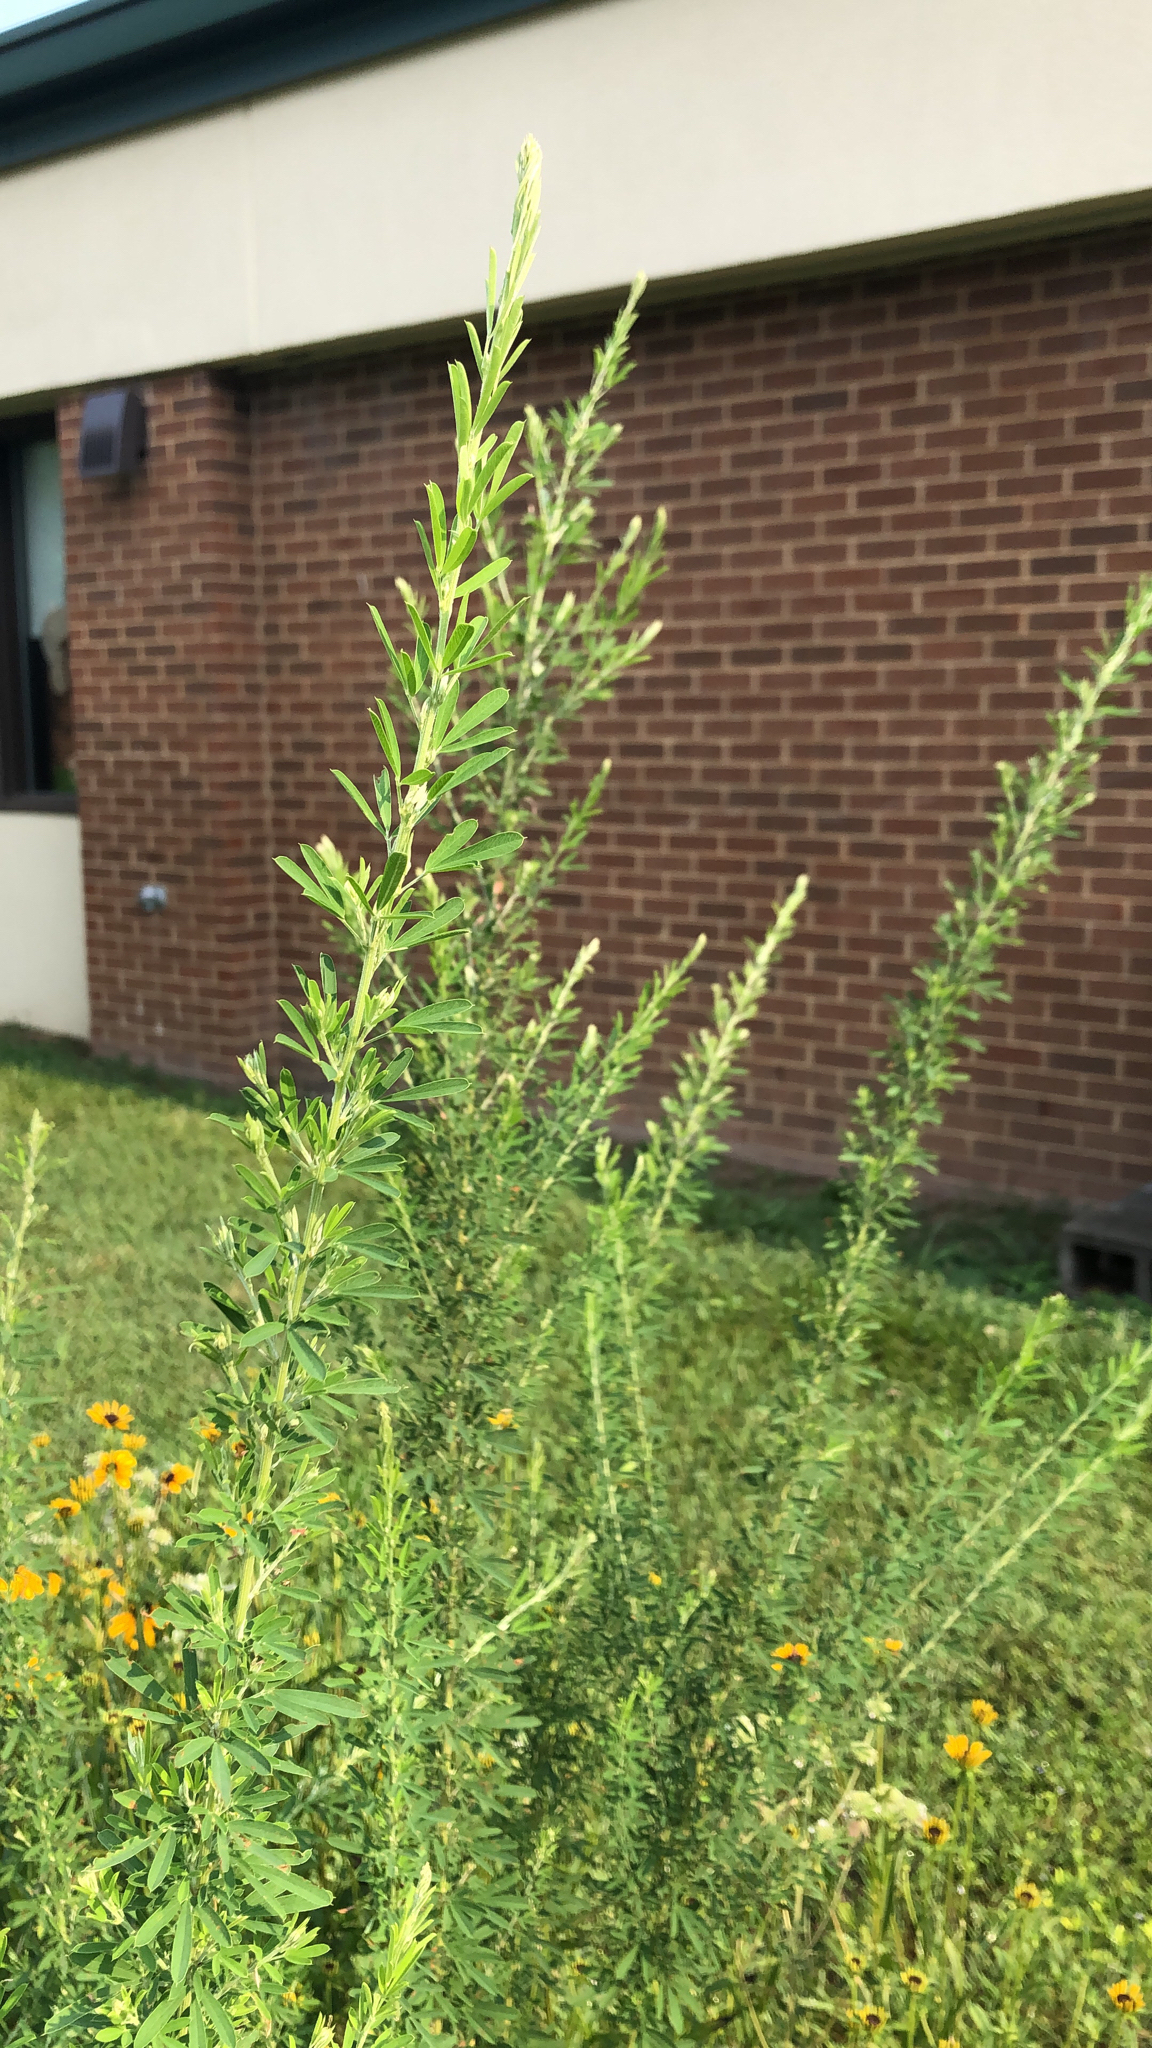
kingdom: Plantae
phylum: Tracheophyta
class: Magnoliopsida
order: Fabales
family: Fabaceae
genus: Lespedeza
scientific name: Lespedeza cuneata
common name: Chinese bush-clover
